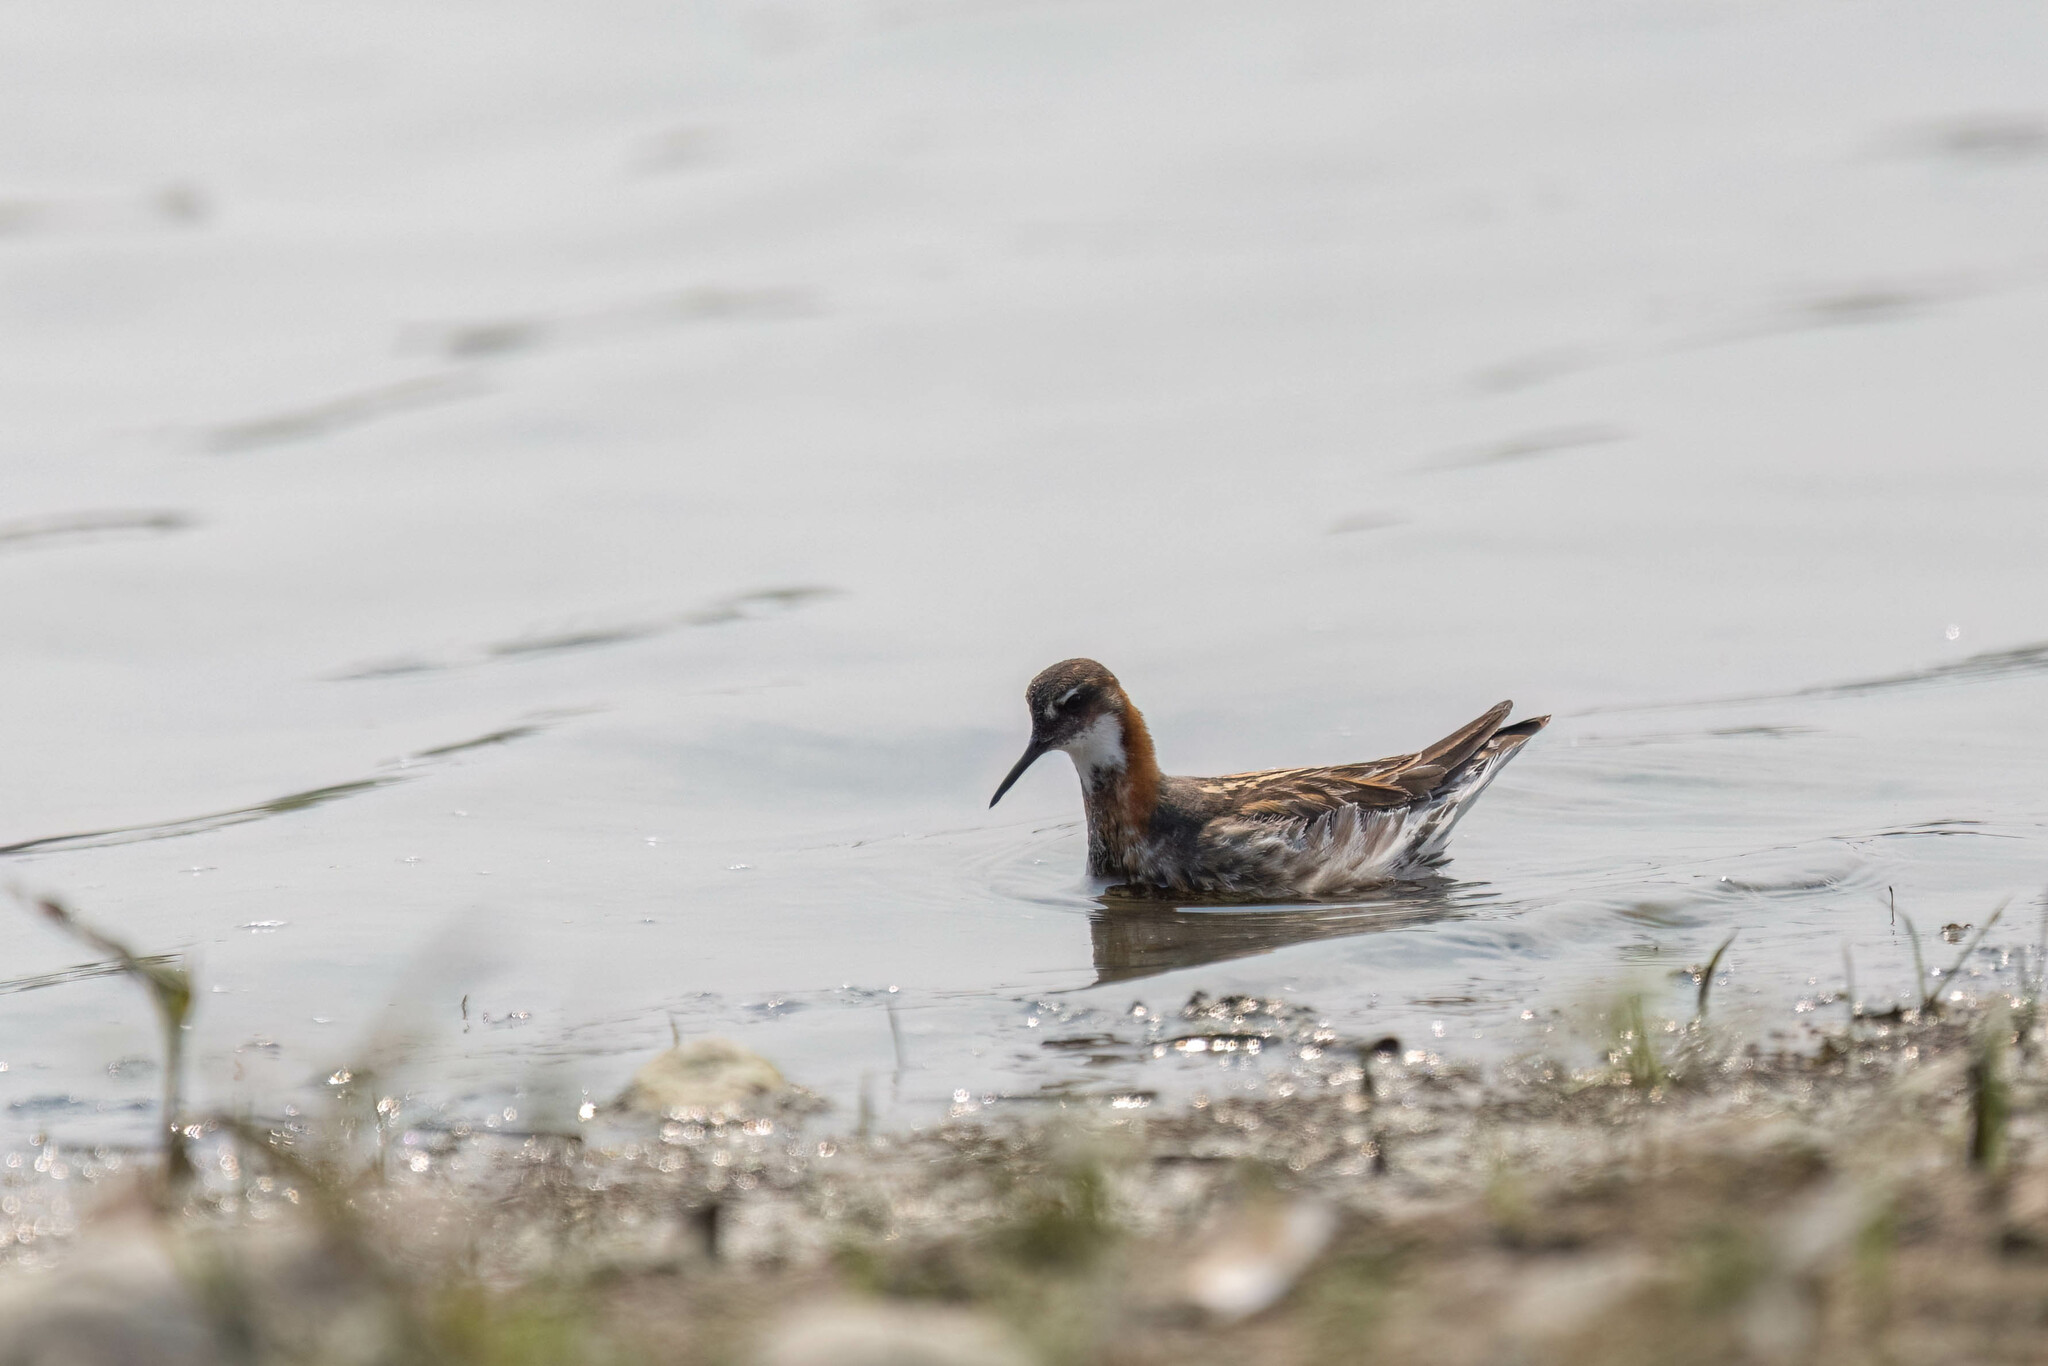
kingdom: Animalia
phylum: Chordata
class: Aves
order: Charadriiformes
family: Scolopacidae
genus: Phalaropus
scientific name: Phalaropus lobatus
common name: Red-necked phalarope
